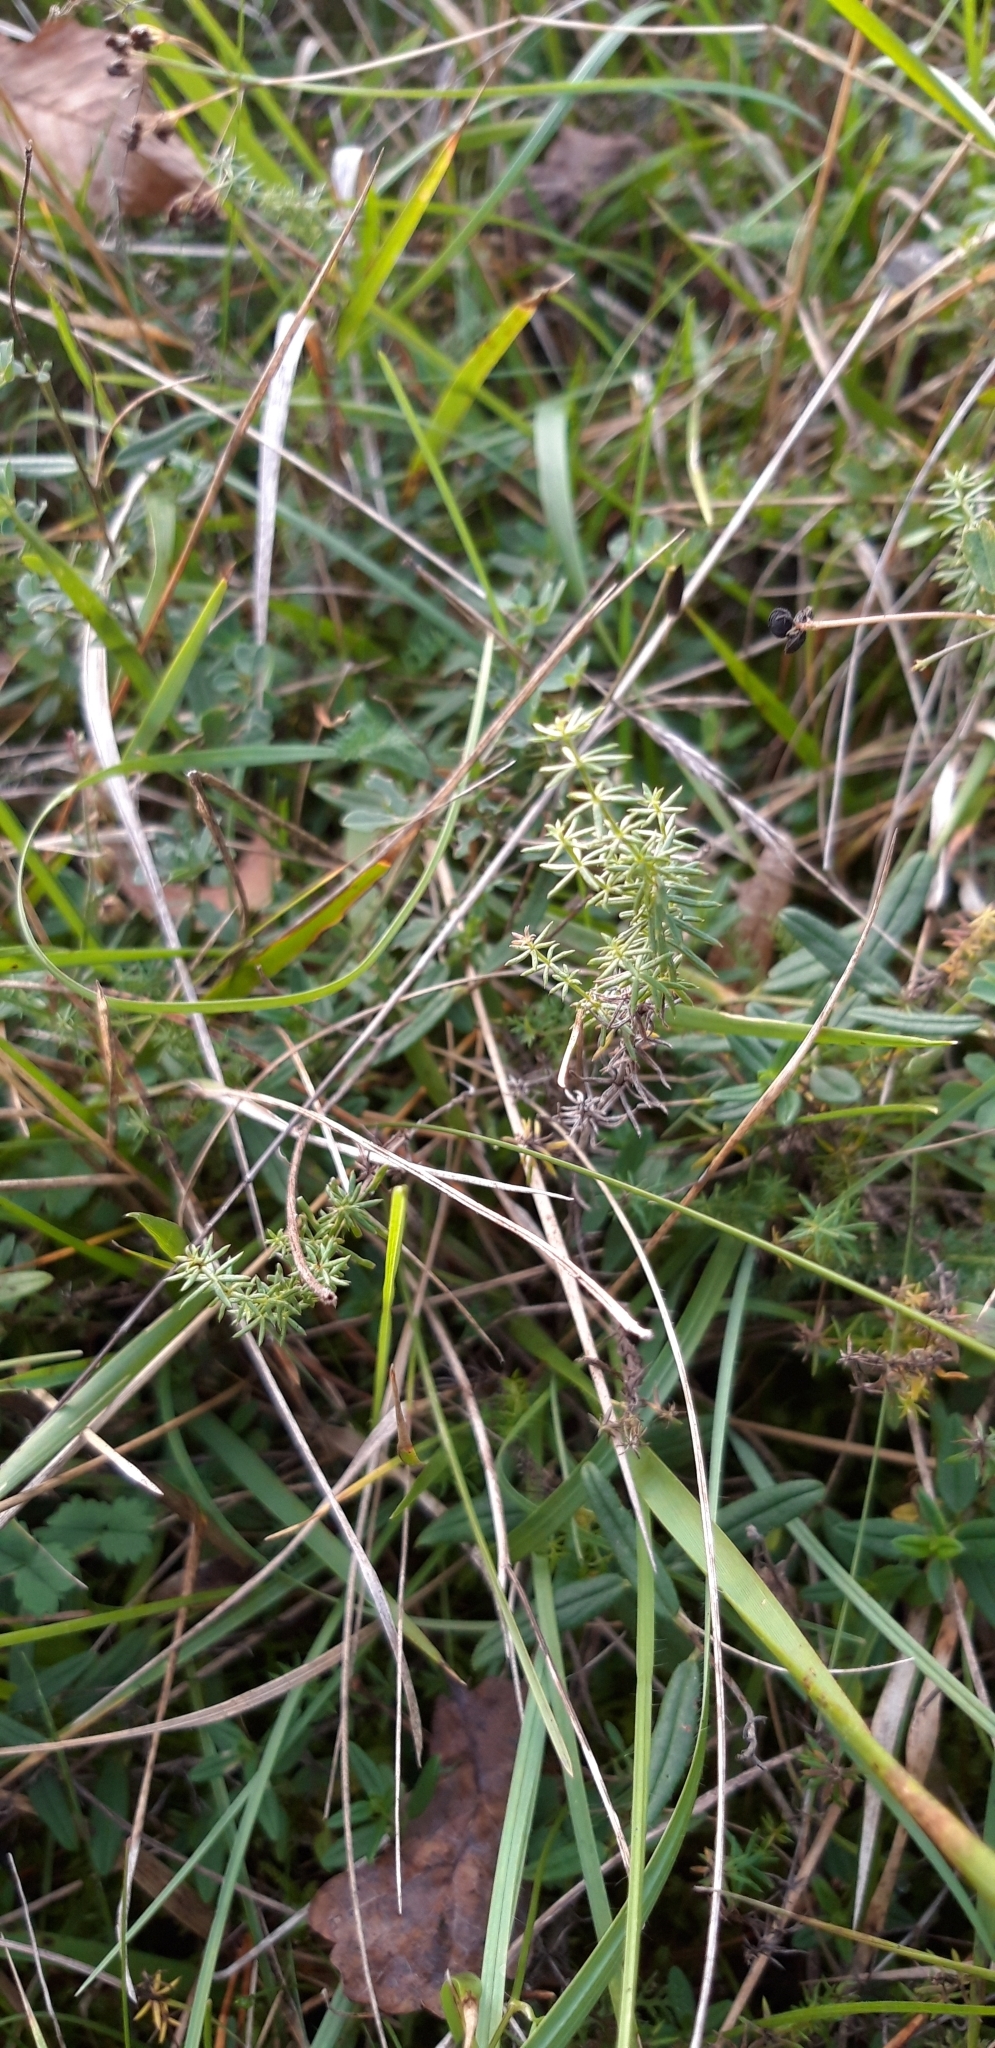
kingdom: Plantae
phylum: Tracheophyta
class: Magnoliopsida
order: Gentianales
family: Rubiaceae
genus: Galium
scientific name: Galium verum
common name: Lady's bedstraw
